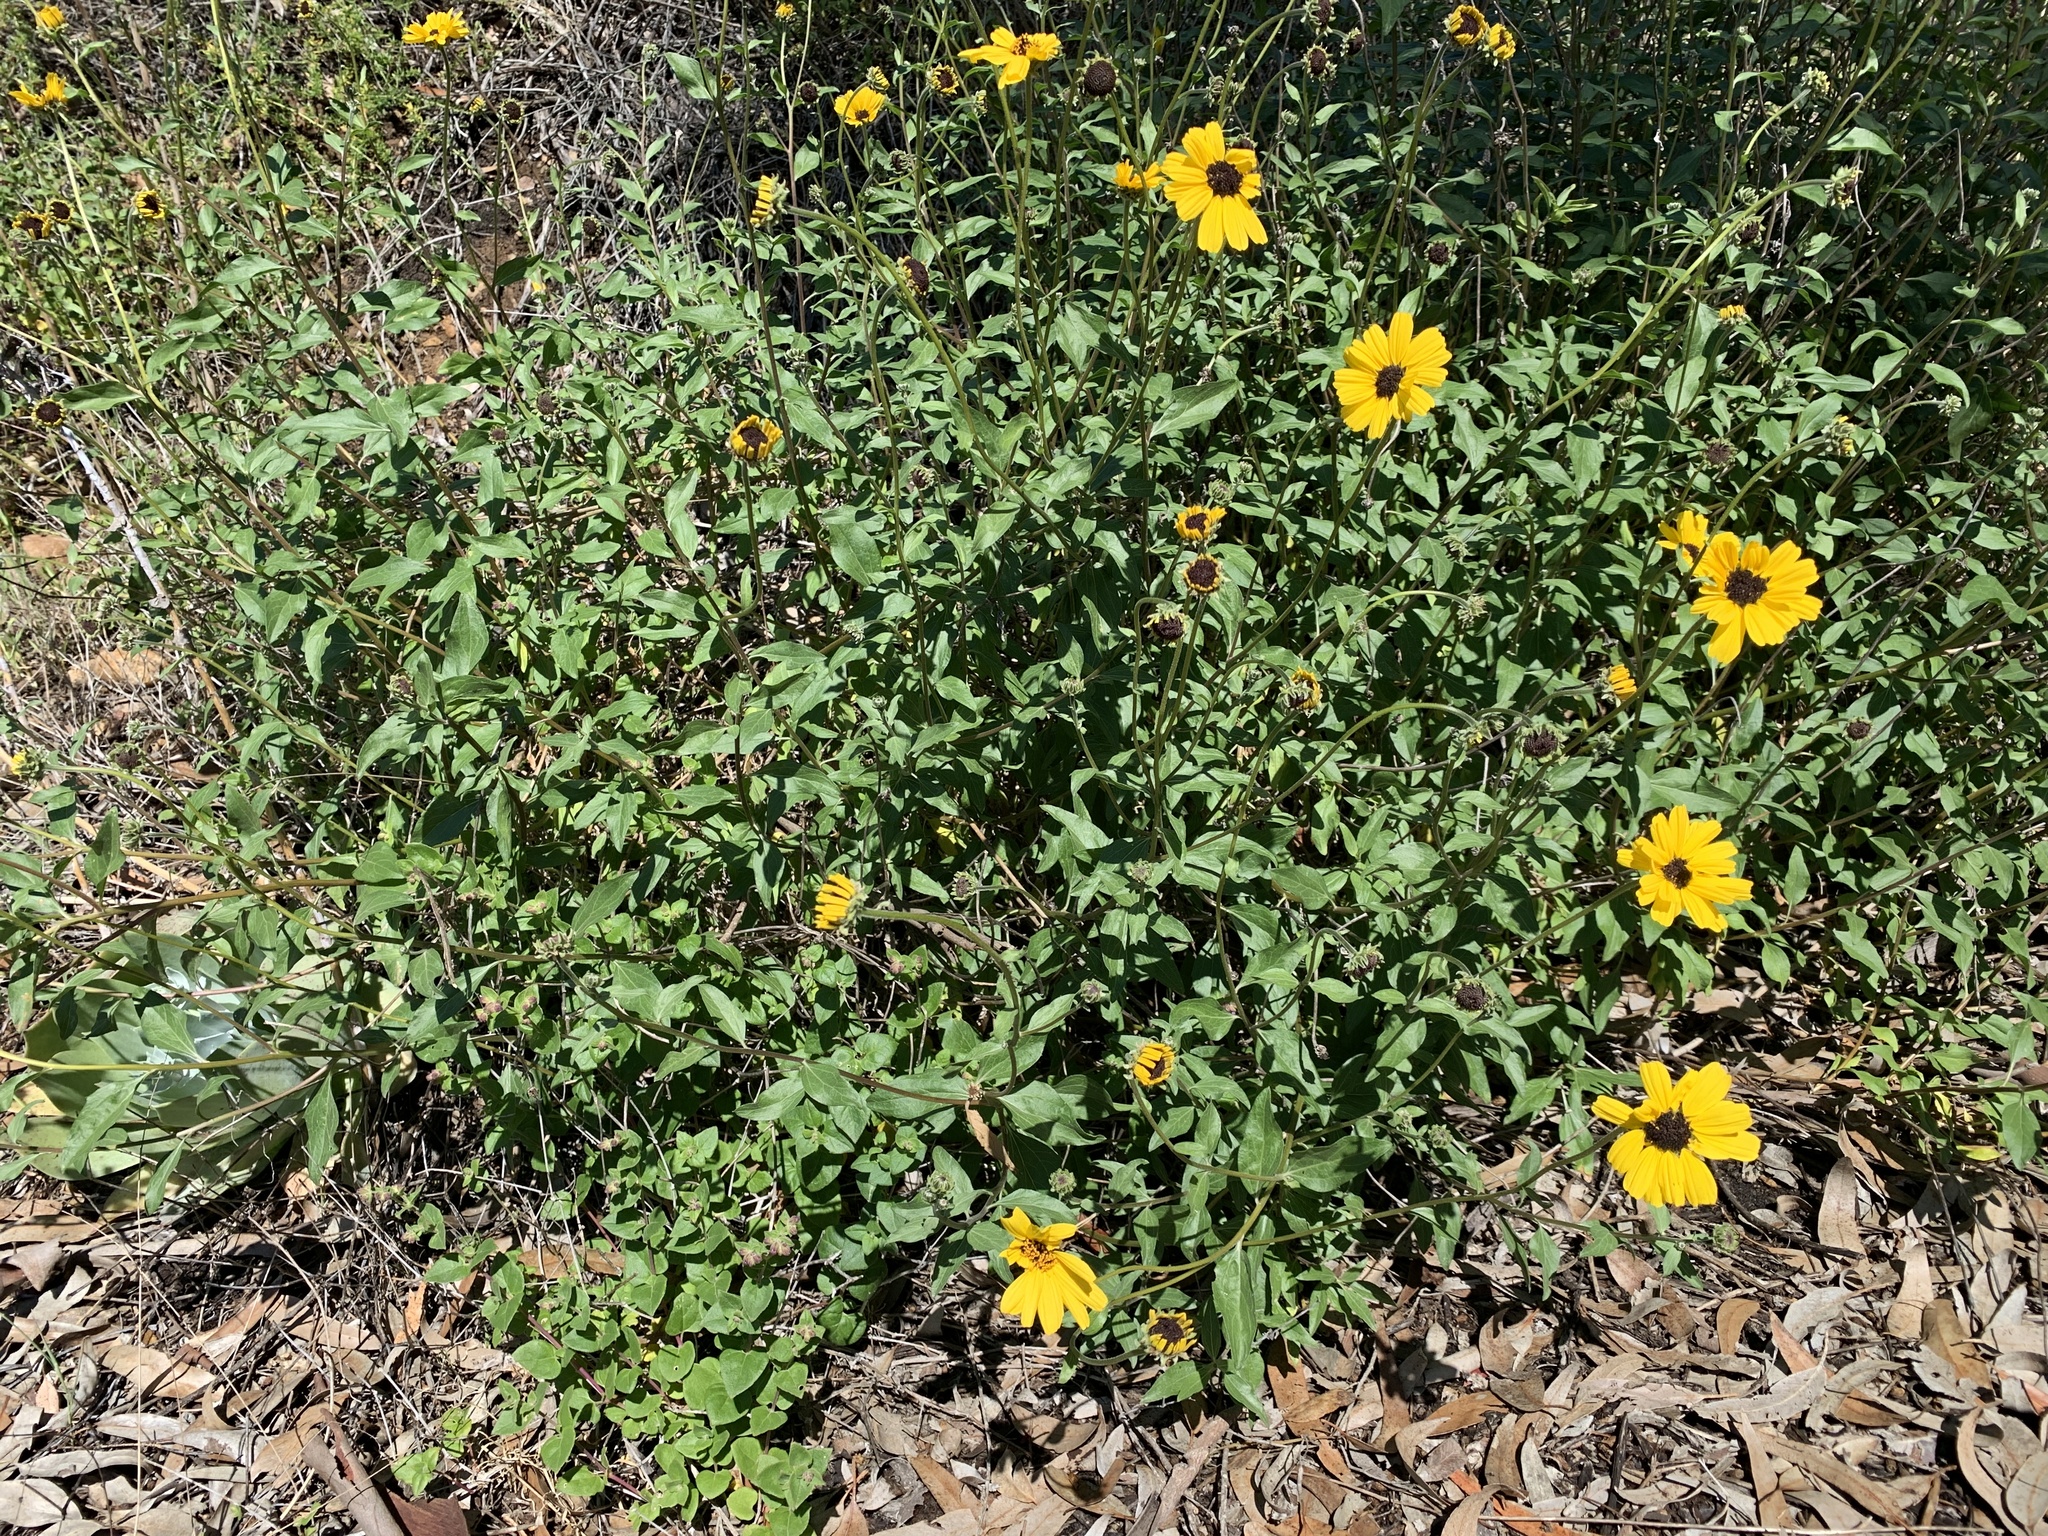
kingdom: Plantae
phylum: Tracheophyta
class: Magnoliopsida
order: Asterales
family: Asteraceae
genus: Encelia
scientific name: Encelia californica
